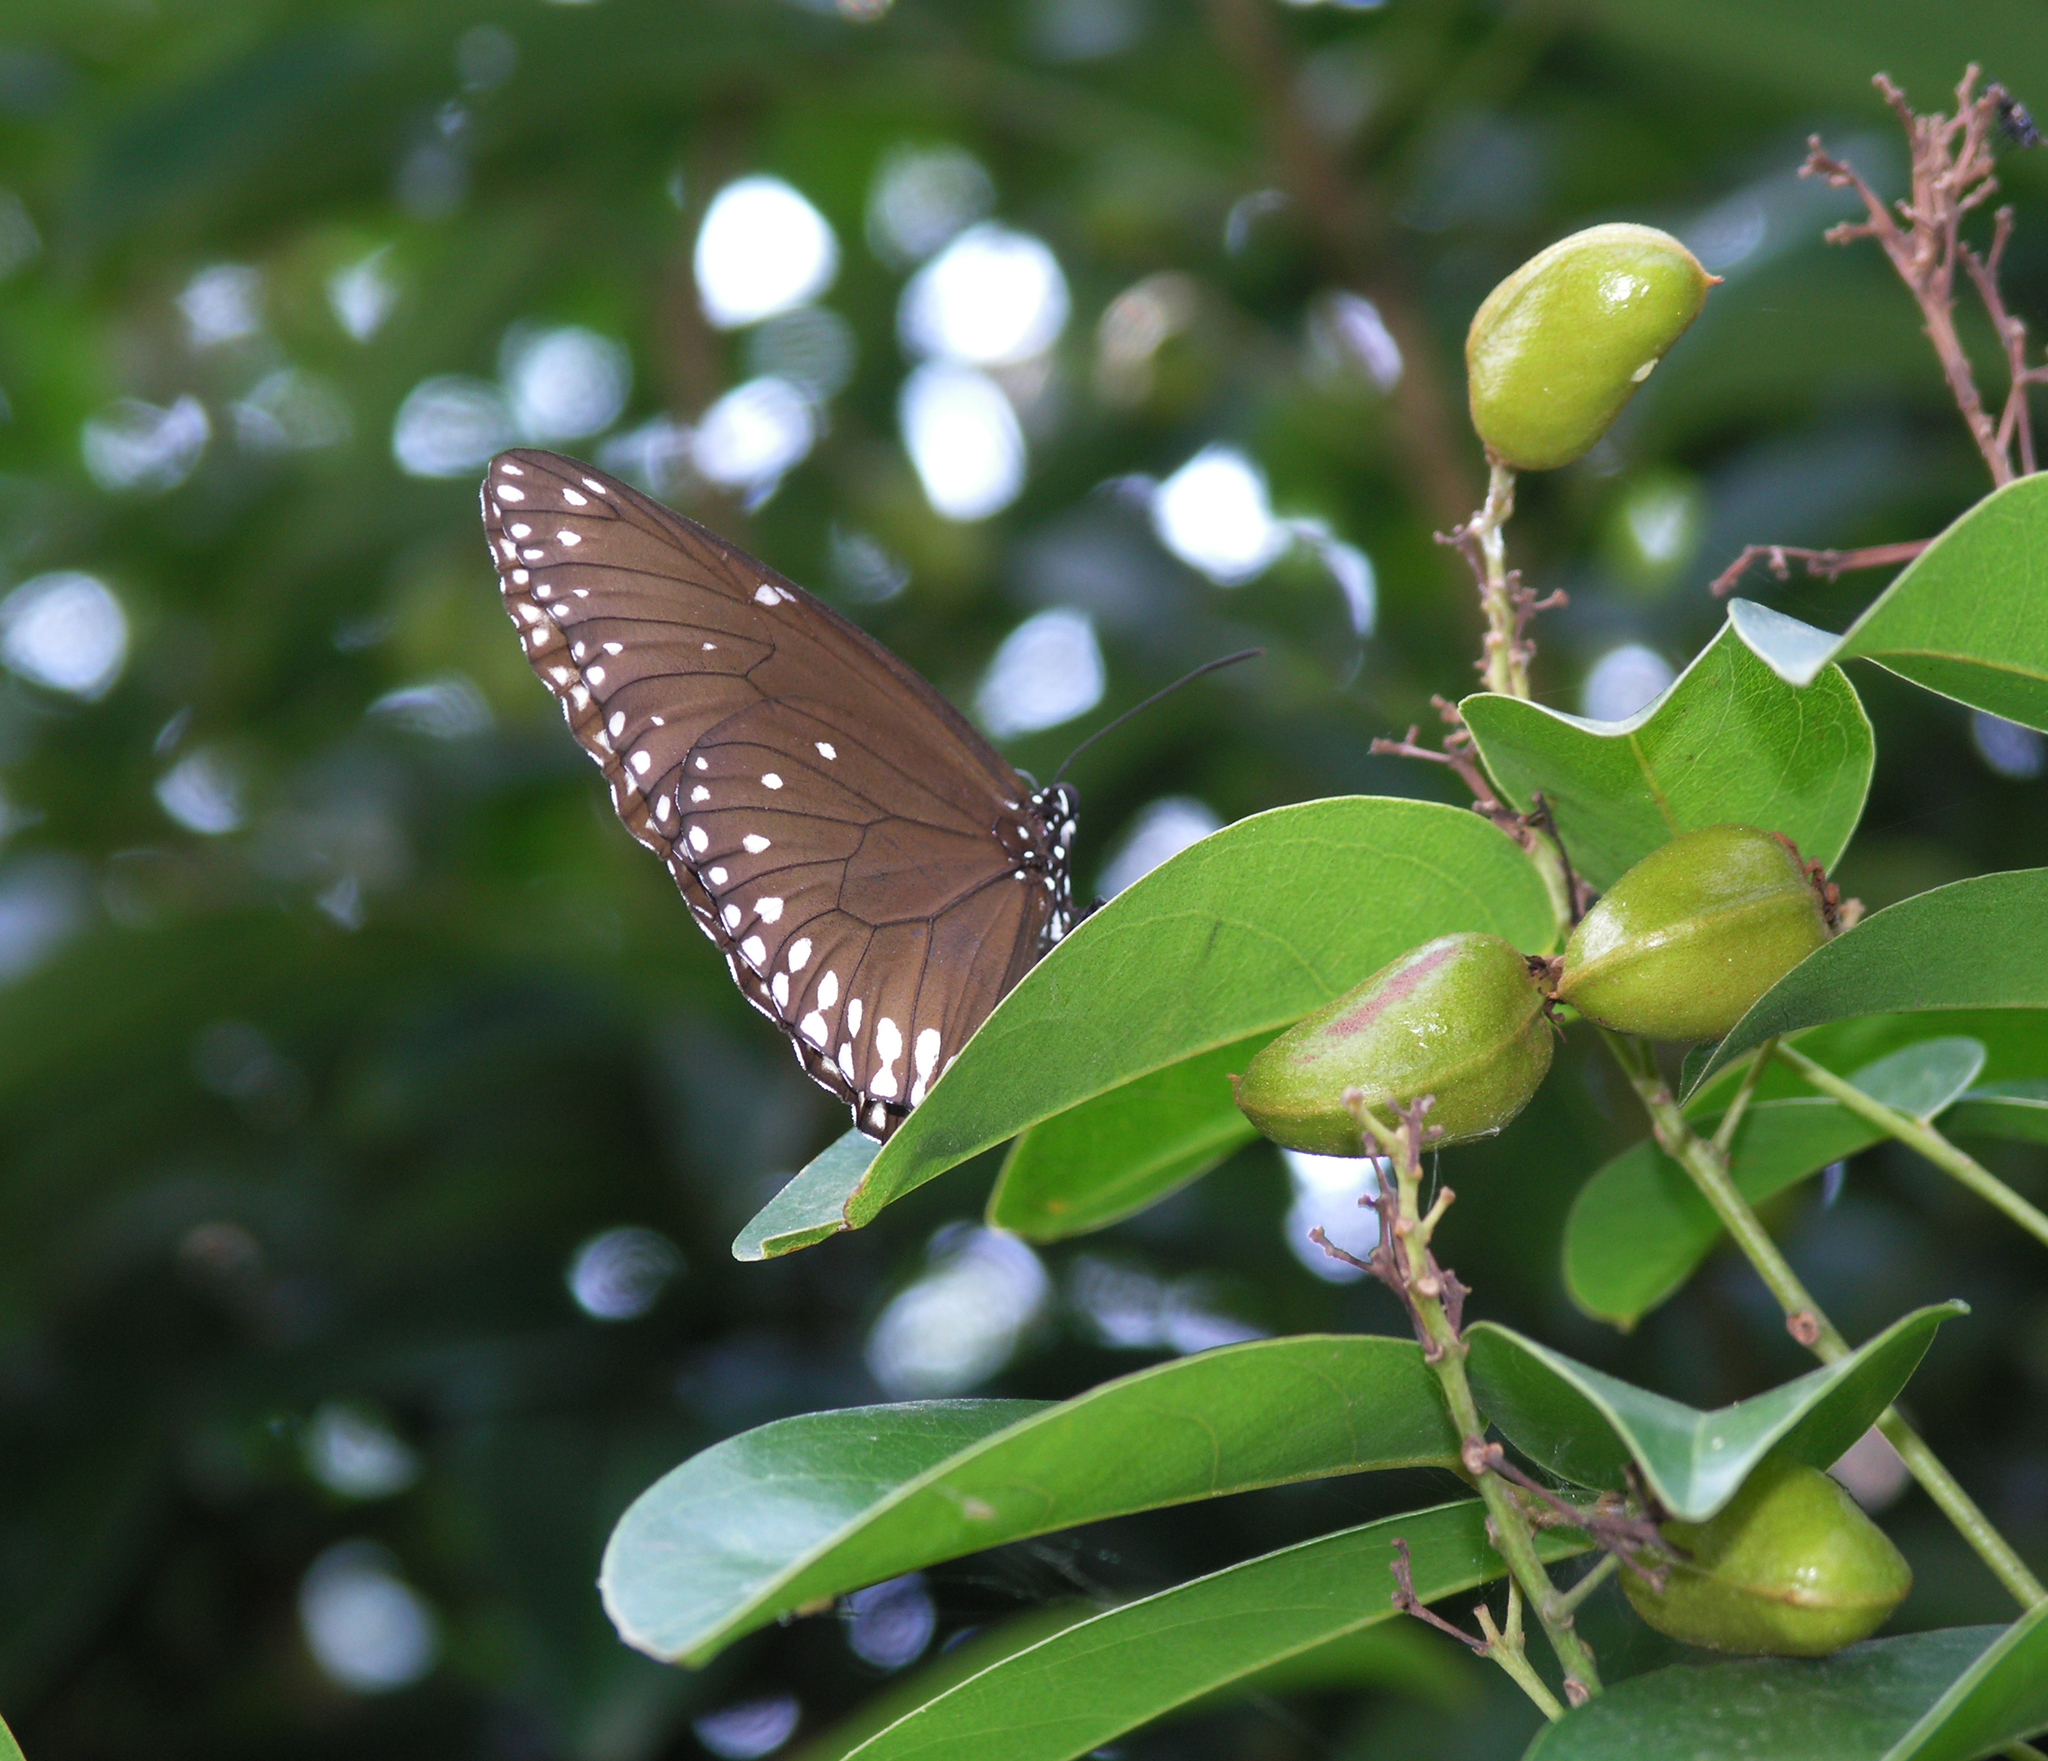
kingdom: Animalia
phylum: Arthropoda
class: Insecta
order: Lepidoptera
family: Nymphalidae
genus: Euploea
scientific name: Euploea core
